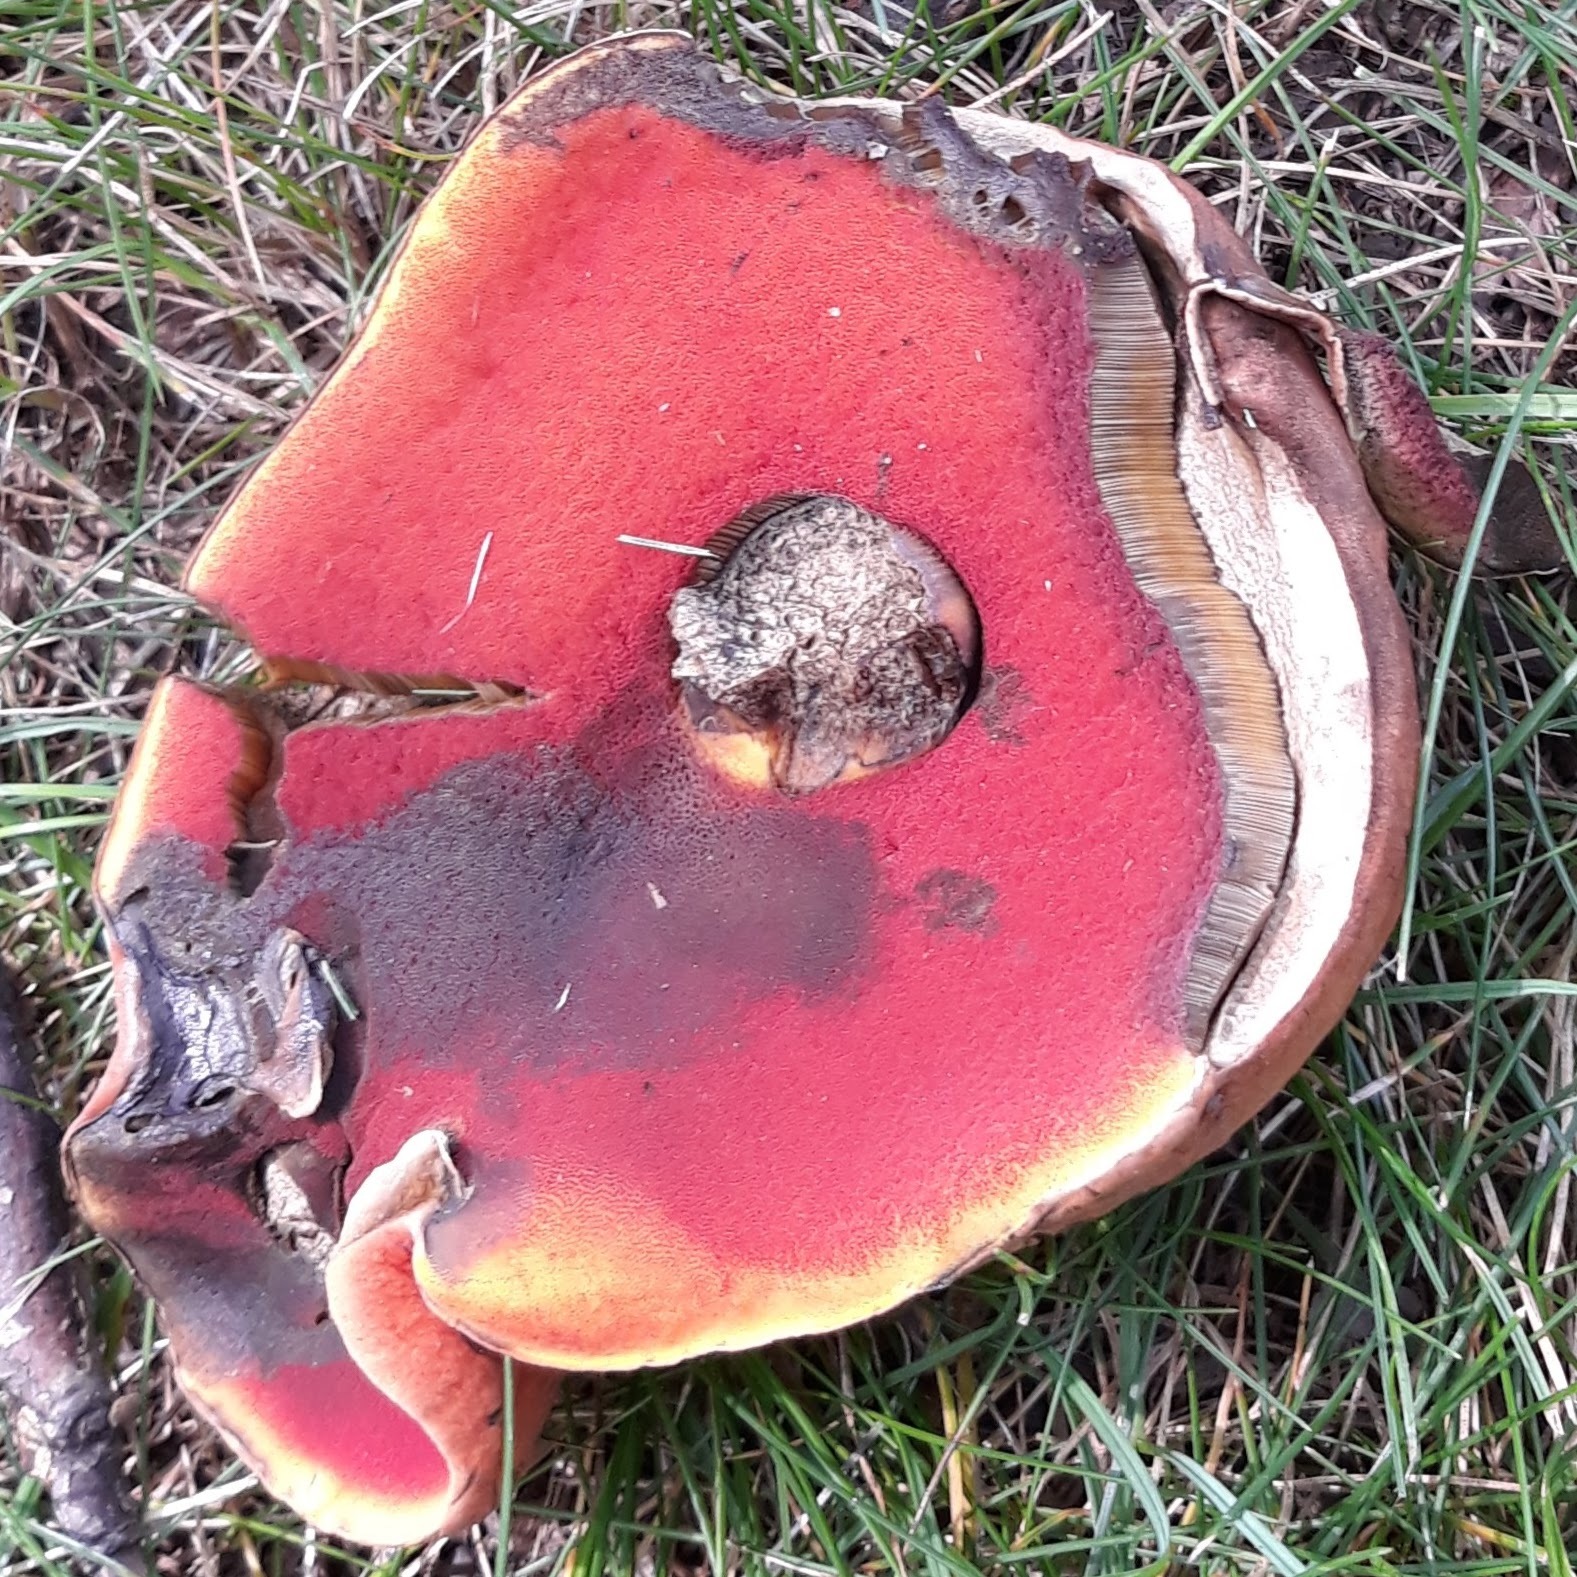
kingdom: Fungi
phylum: Basidiomycota
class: Agaricomycetes
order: Boletales
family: Boletaceae
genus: Boletus
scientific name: Boletus subvelutipes
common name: Red-mouth bolete
